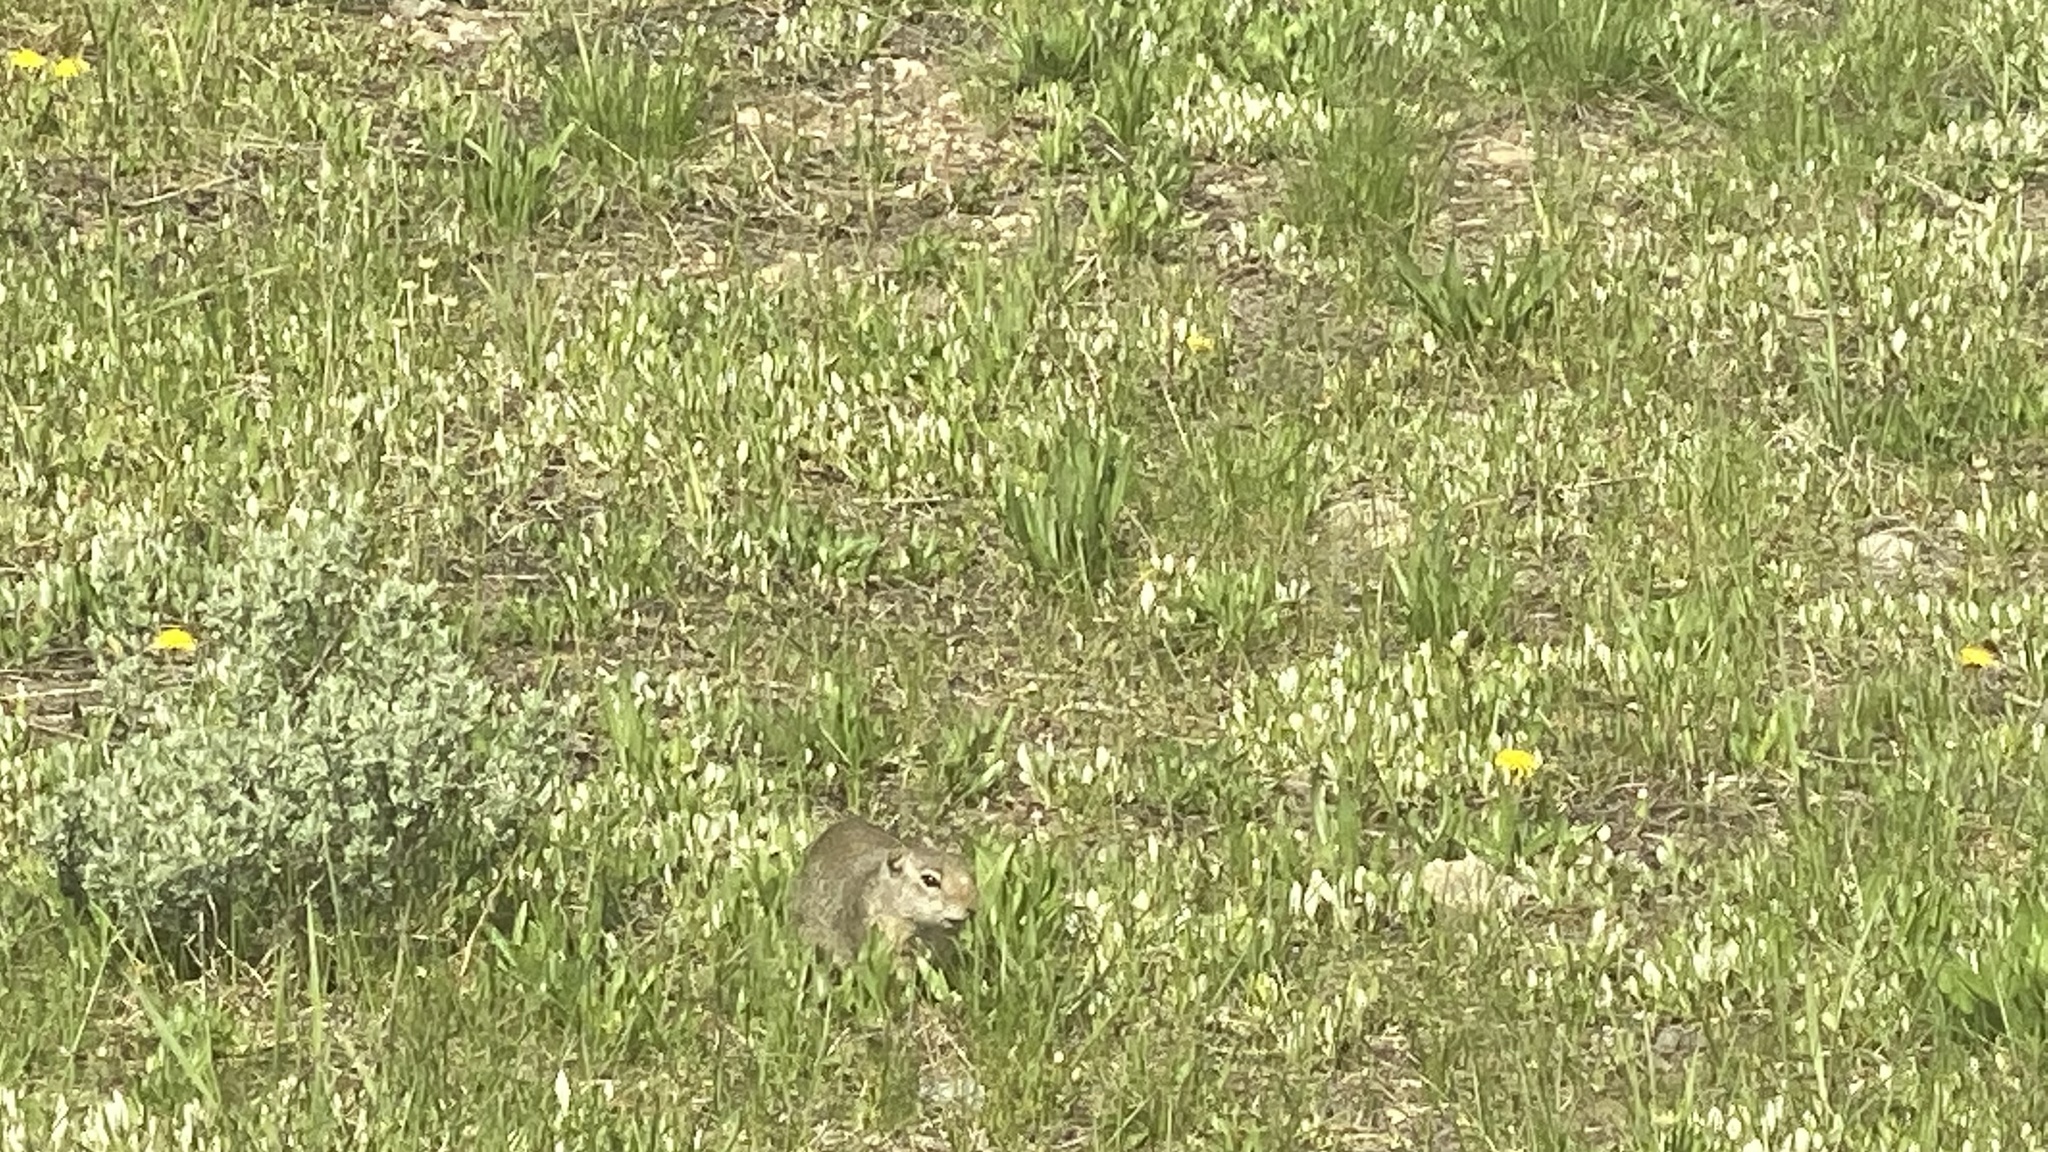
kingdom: Animalia
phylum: Chordata
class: Mammalia
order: Rodentia
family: Sciuridae
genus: Urocitellus
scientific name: Urocitellus armatus
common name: Uinta ground squirrel
